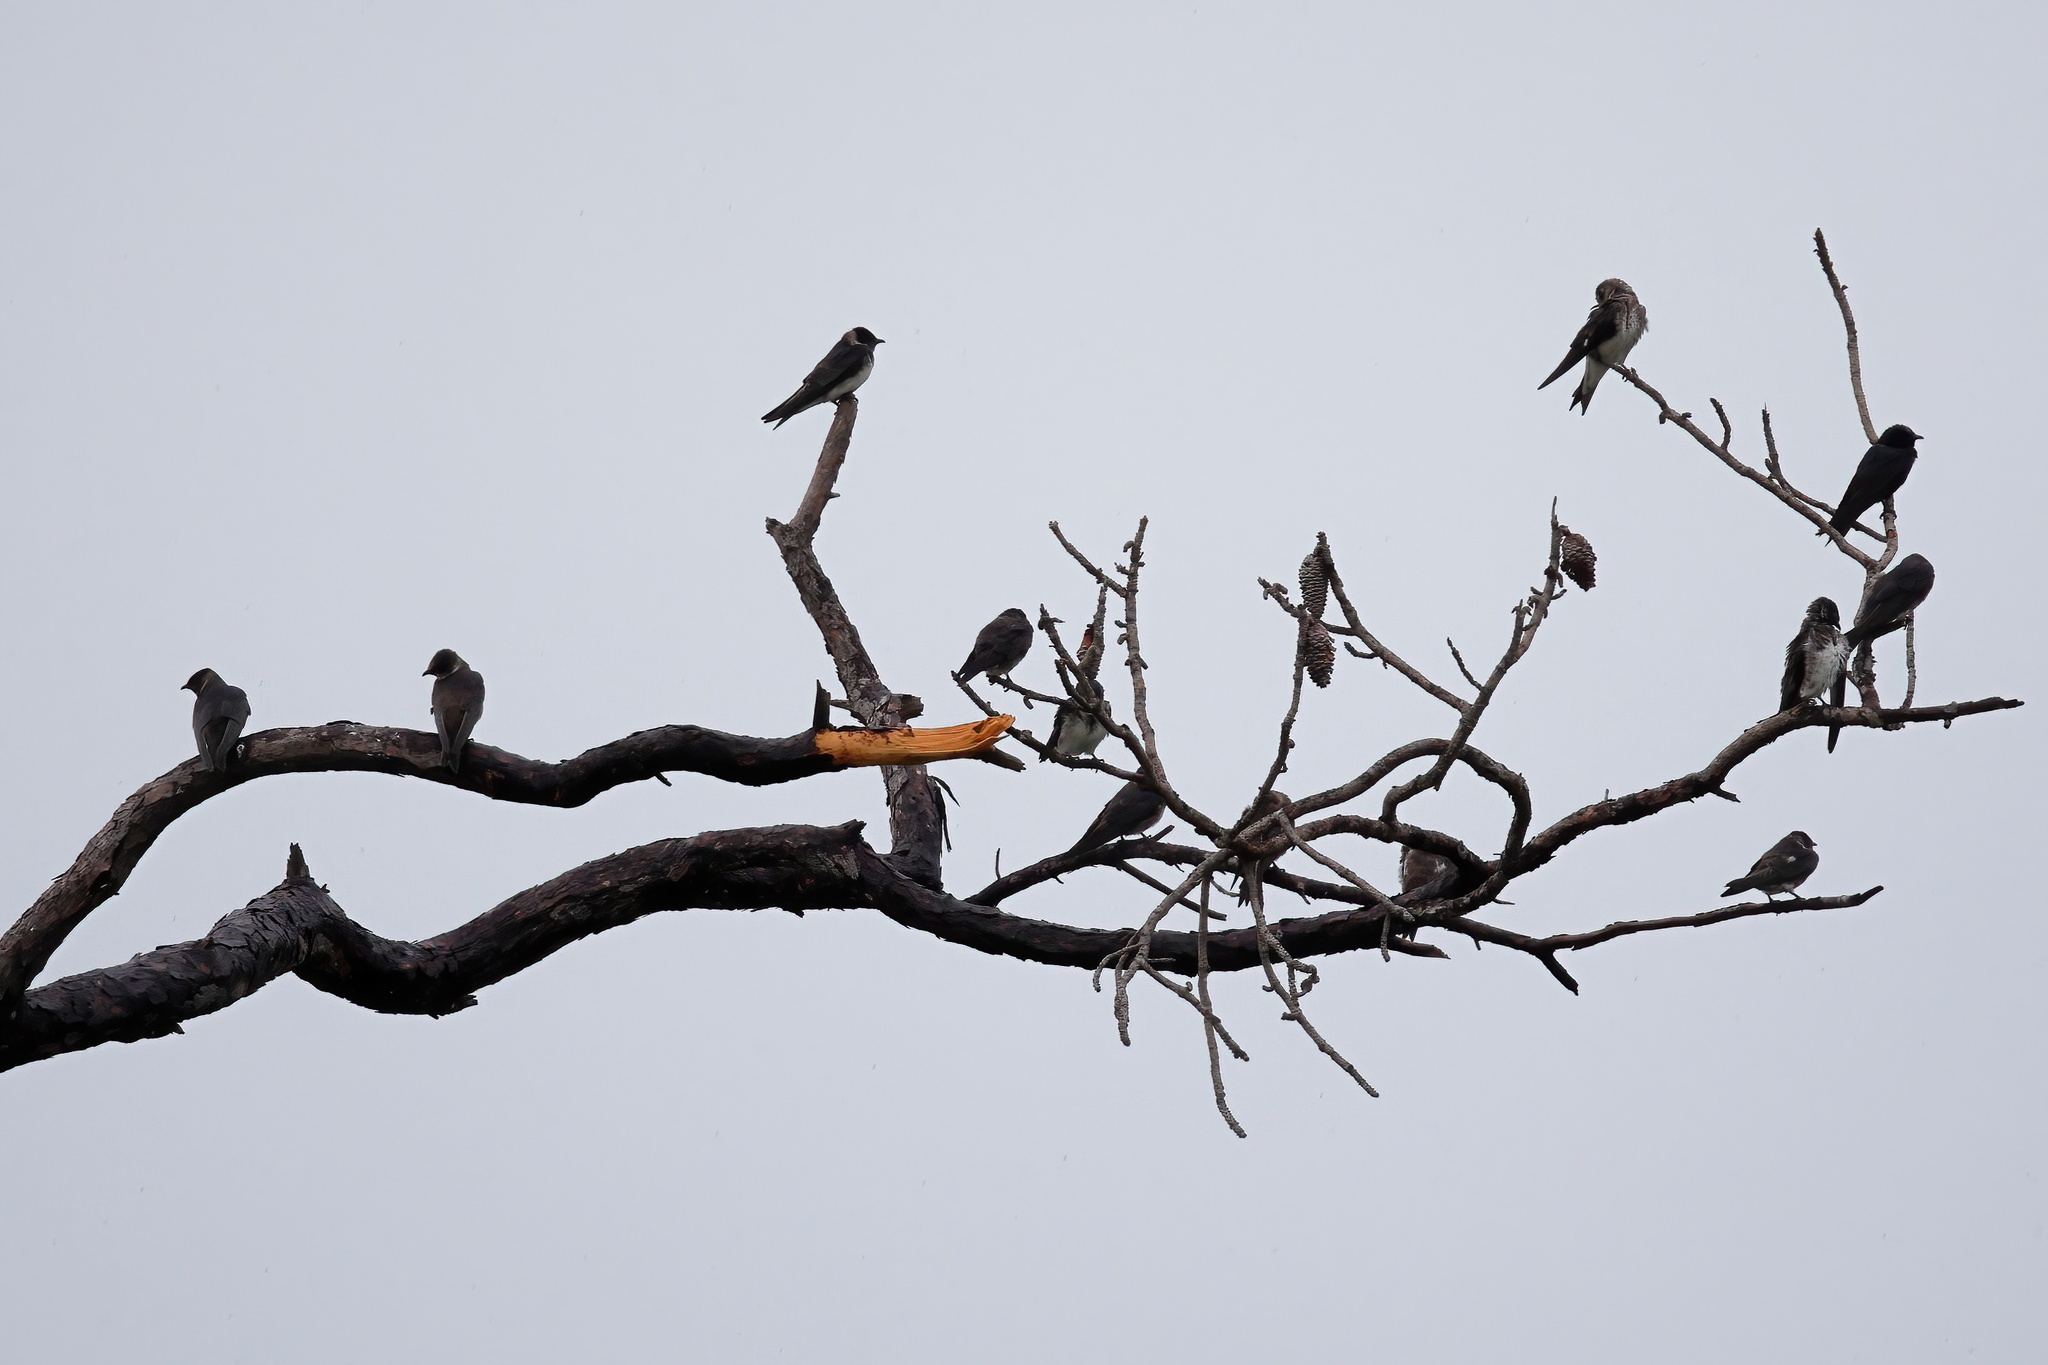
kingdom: Animalia
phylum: Chordata
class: Aves
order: Passeriformes
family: Hirundinidae
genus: Progne
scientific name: Progne subis
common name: Purple martin
